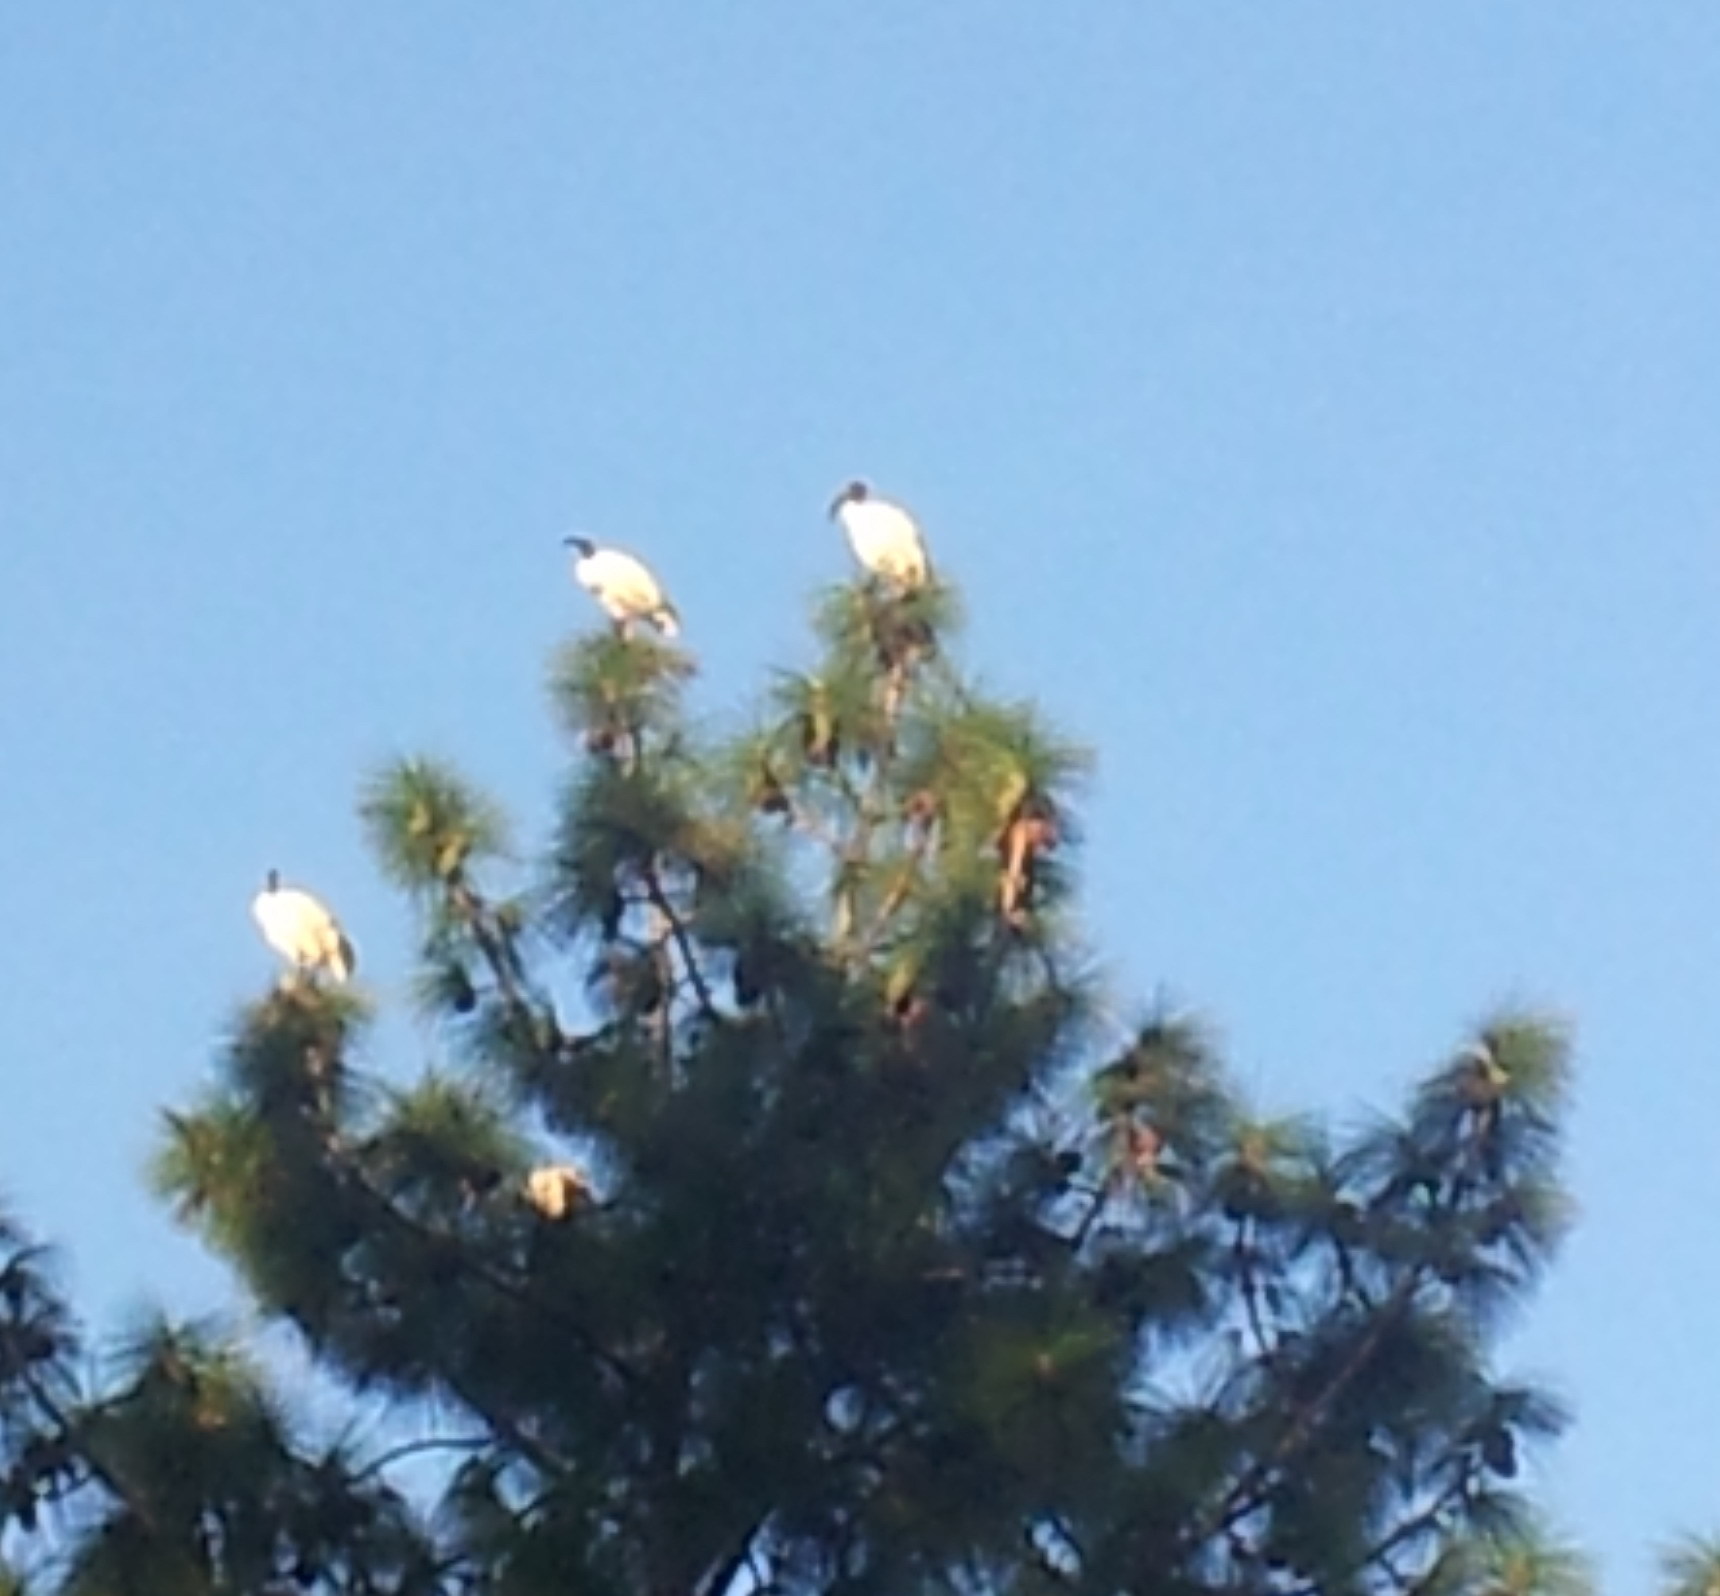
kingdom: Animalia
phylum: Chordata
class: Aves
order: Pelecaniformes
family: Threskiornithidae
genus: Threskiornis
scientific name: Threskiornis aethiopicus
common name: Sacred ibis
